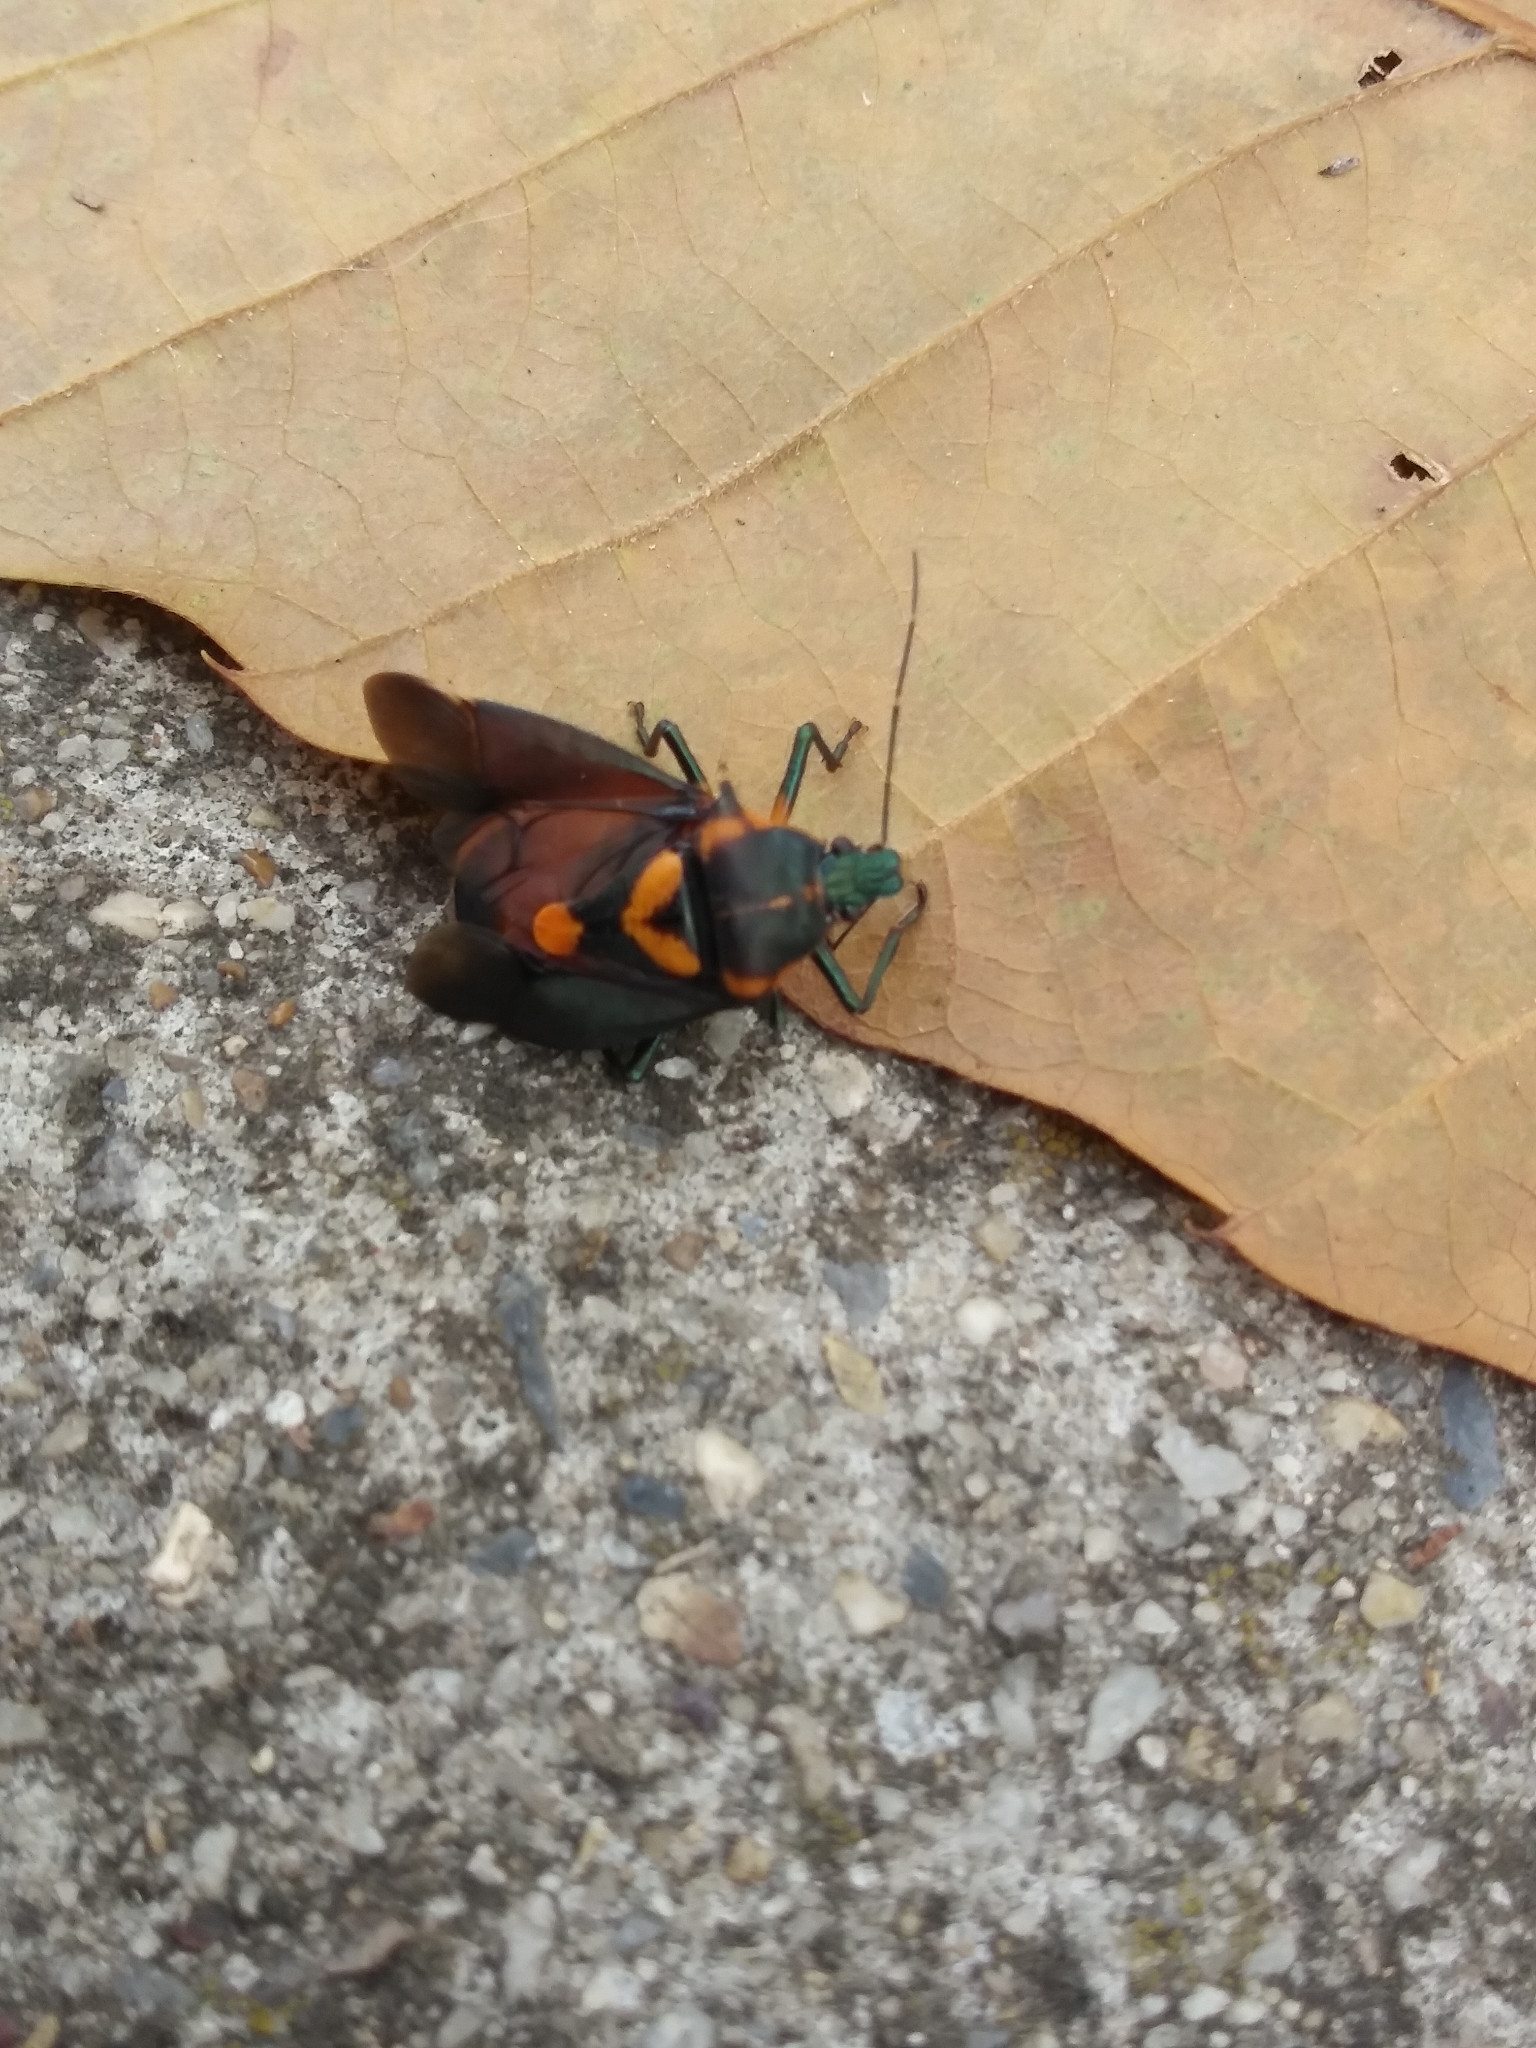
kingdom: Animalia
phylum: Arthropoda
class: Insecta
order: Hemiptera
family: Pentatomidae
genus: Euthyrhynchus
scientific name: Euthyrhynchus floridanus
